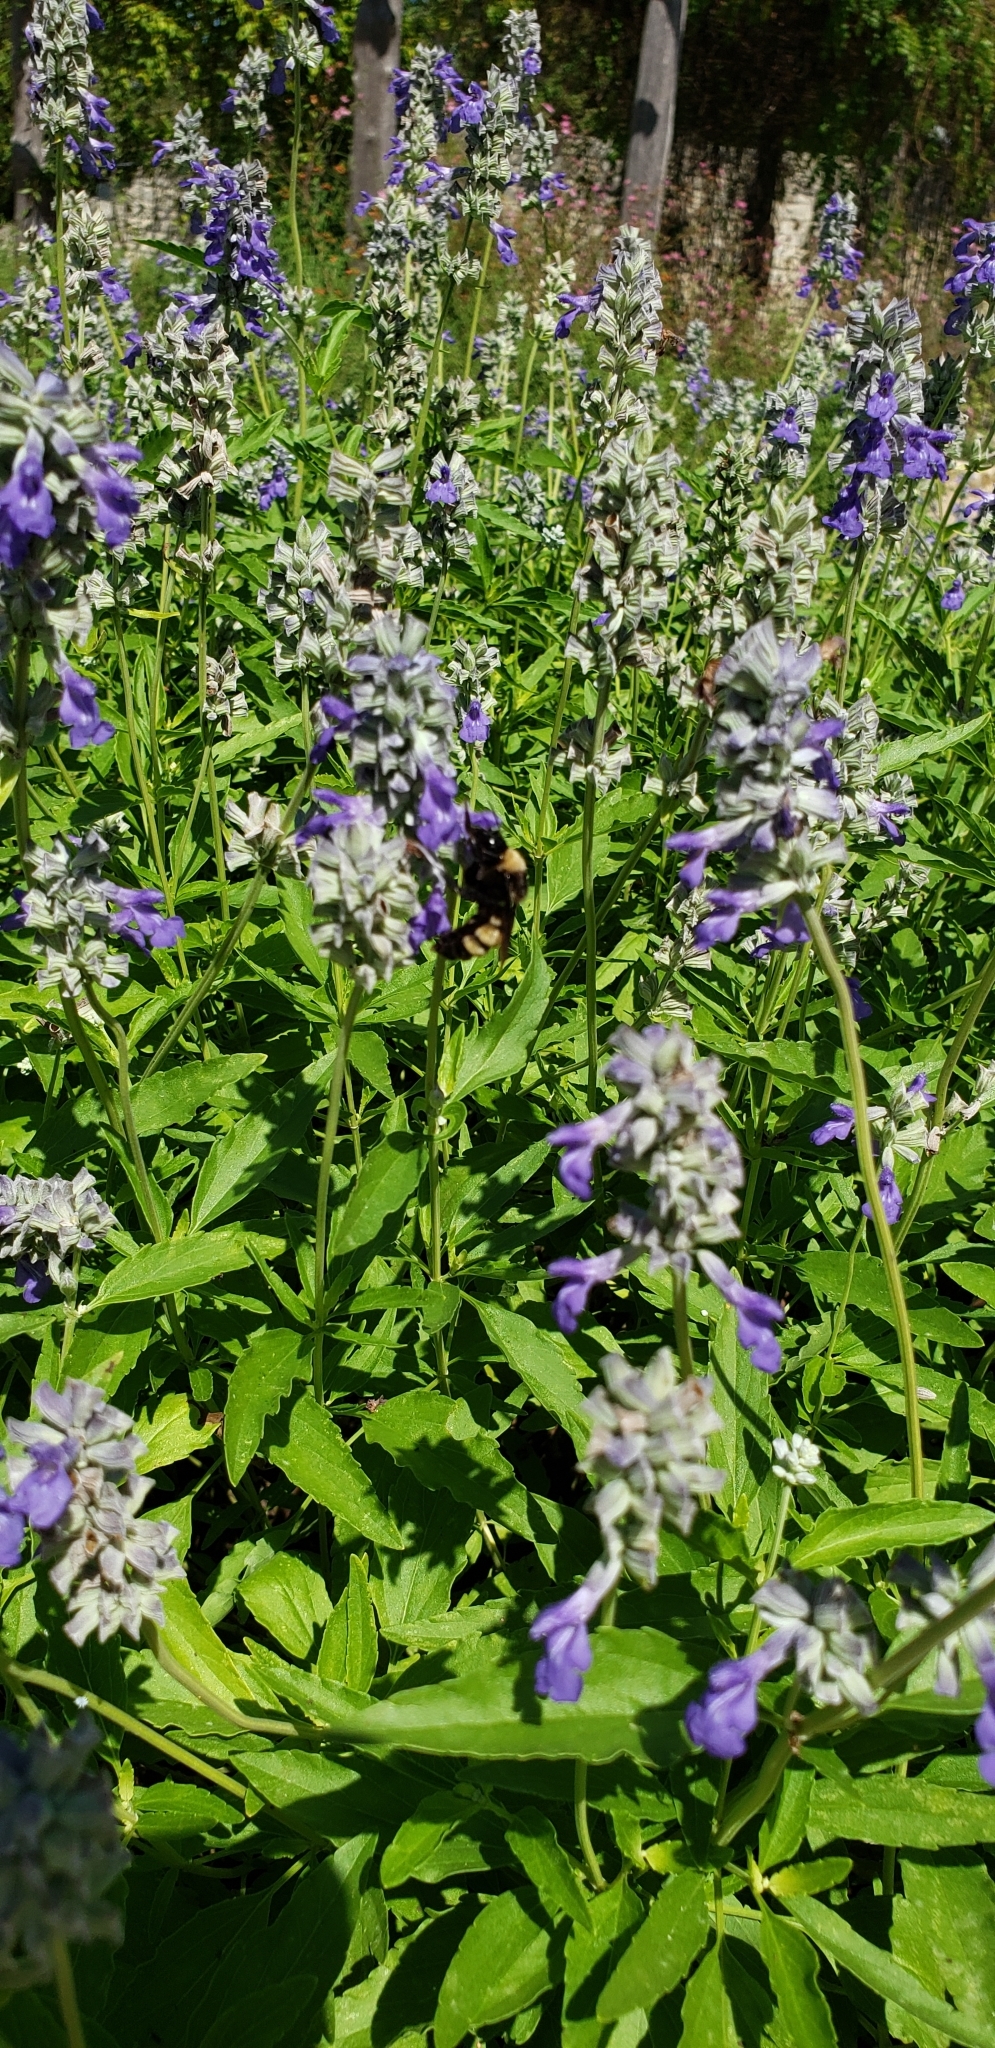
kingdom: Animalia
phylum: Arthropoda
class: Insecta
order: Hymenoptera
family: Apidae
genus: Bombus
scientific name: Bombus pensylvanicus
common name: Bumble bee
